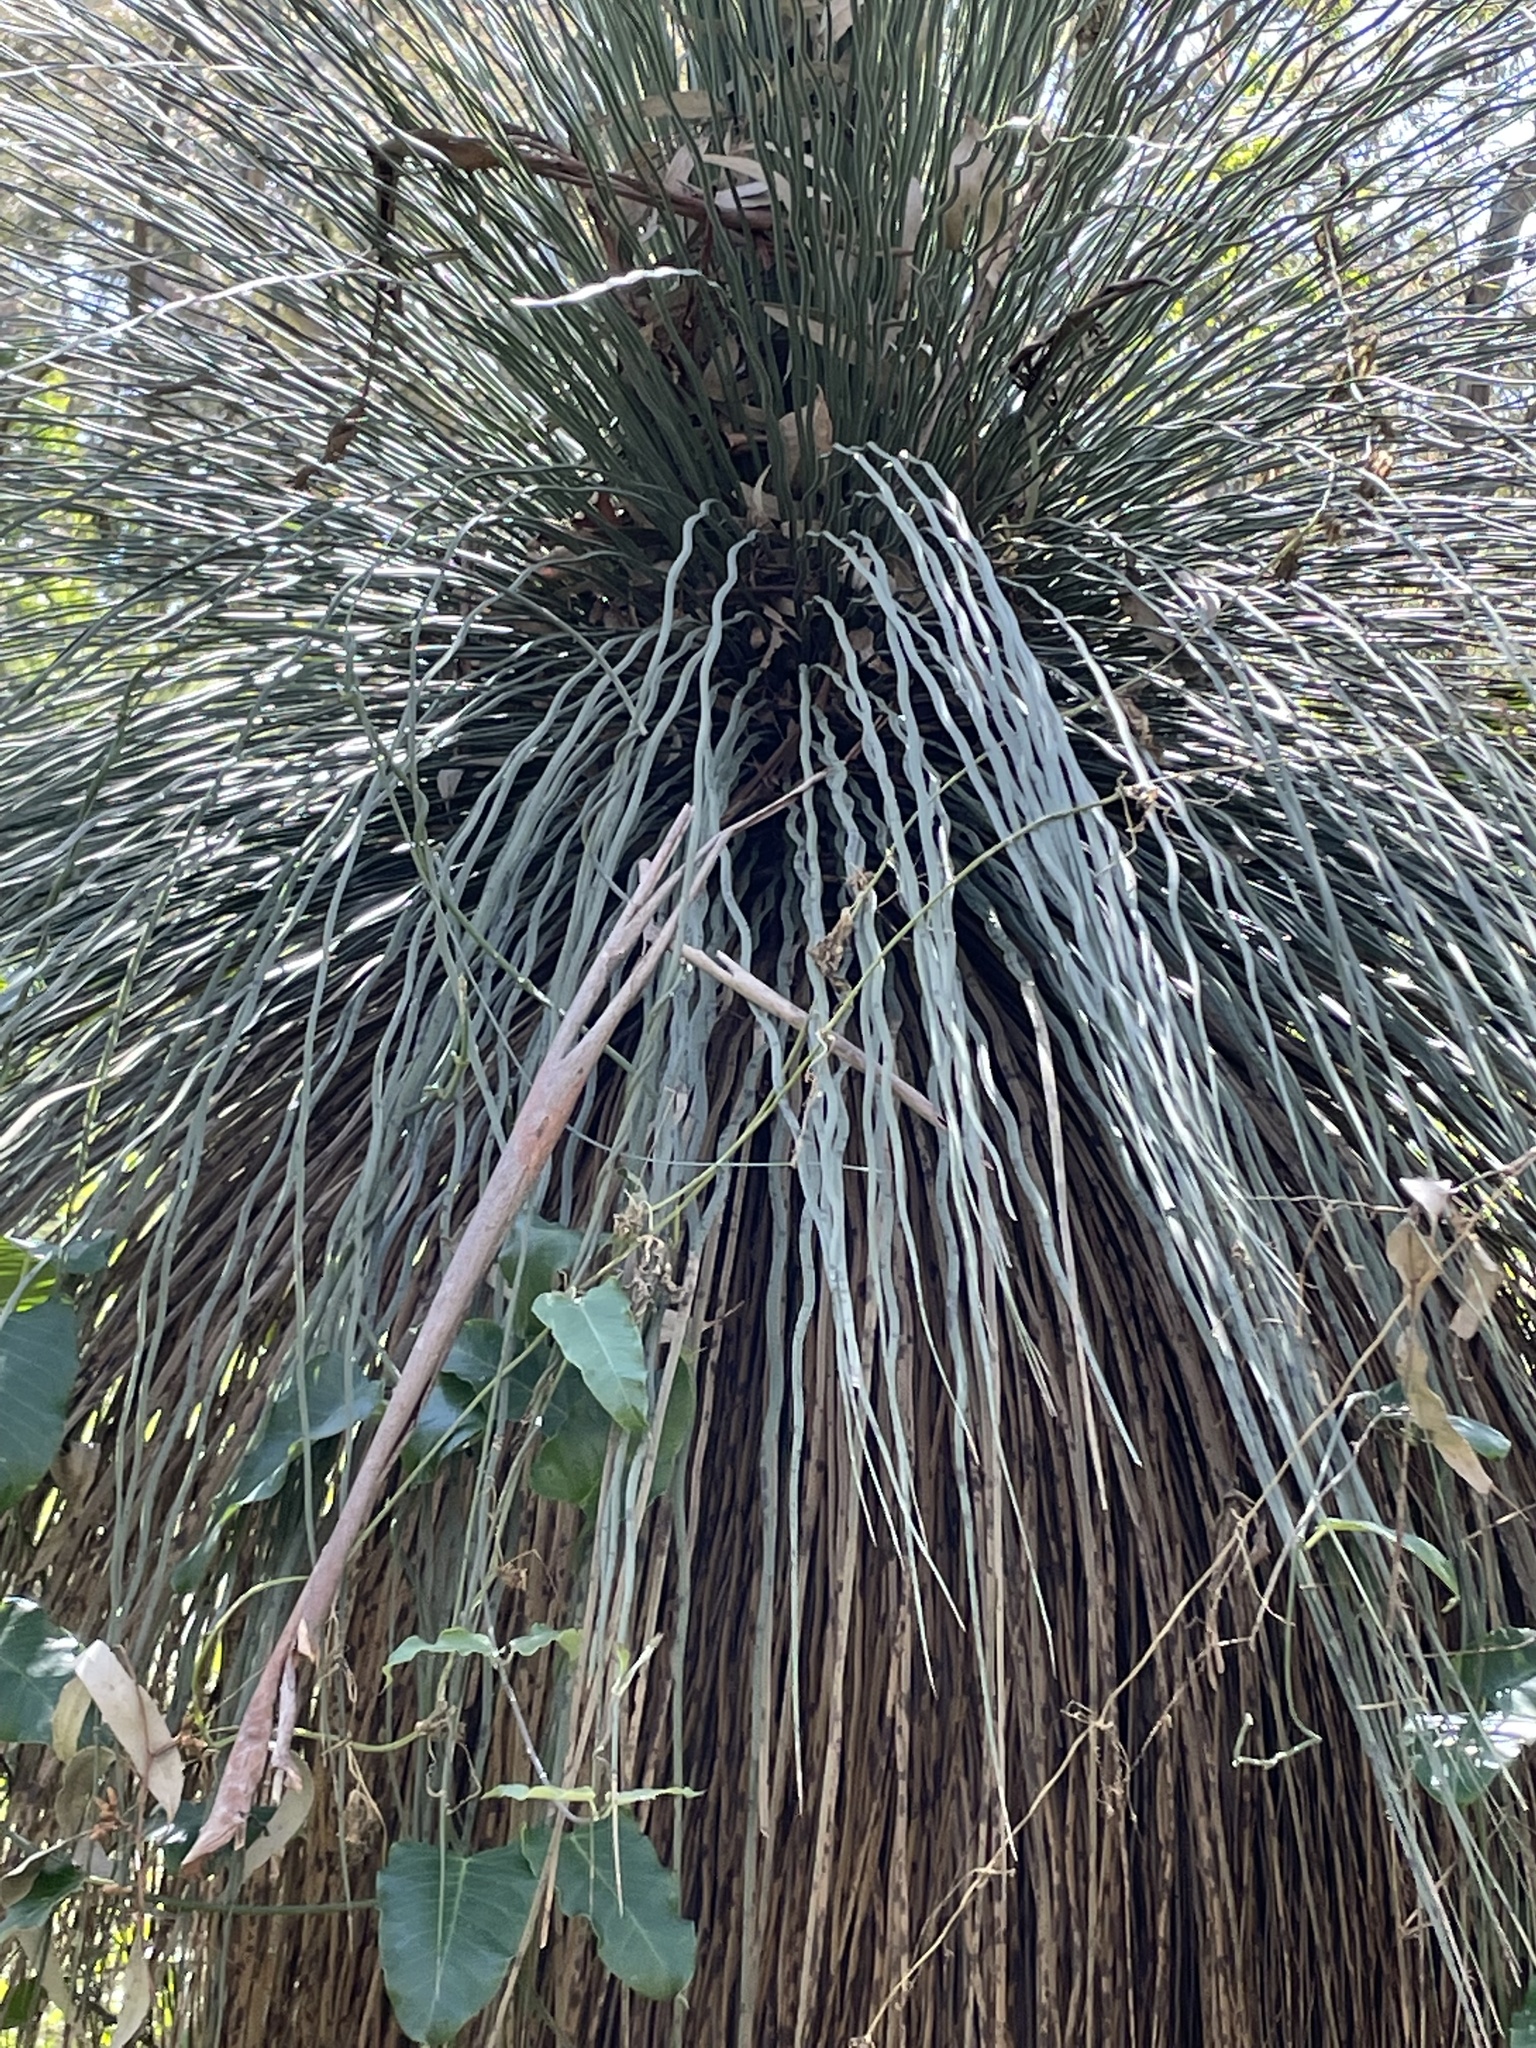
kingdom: Plantae
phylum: Tracheophyta
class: Liliopsida
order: Asparagales
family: Asphodelaceae
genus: Xanthorrhoea
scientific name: Xanthorrhoea glauca
